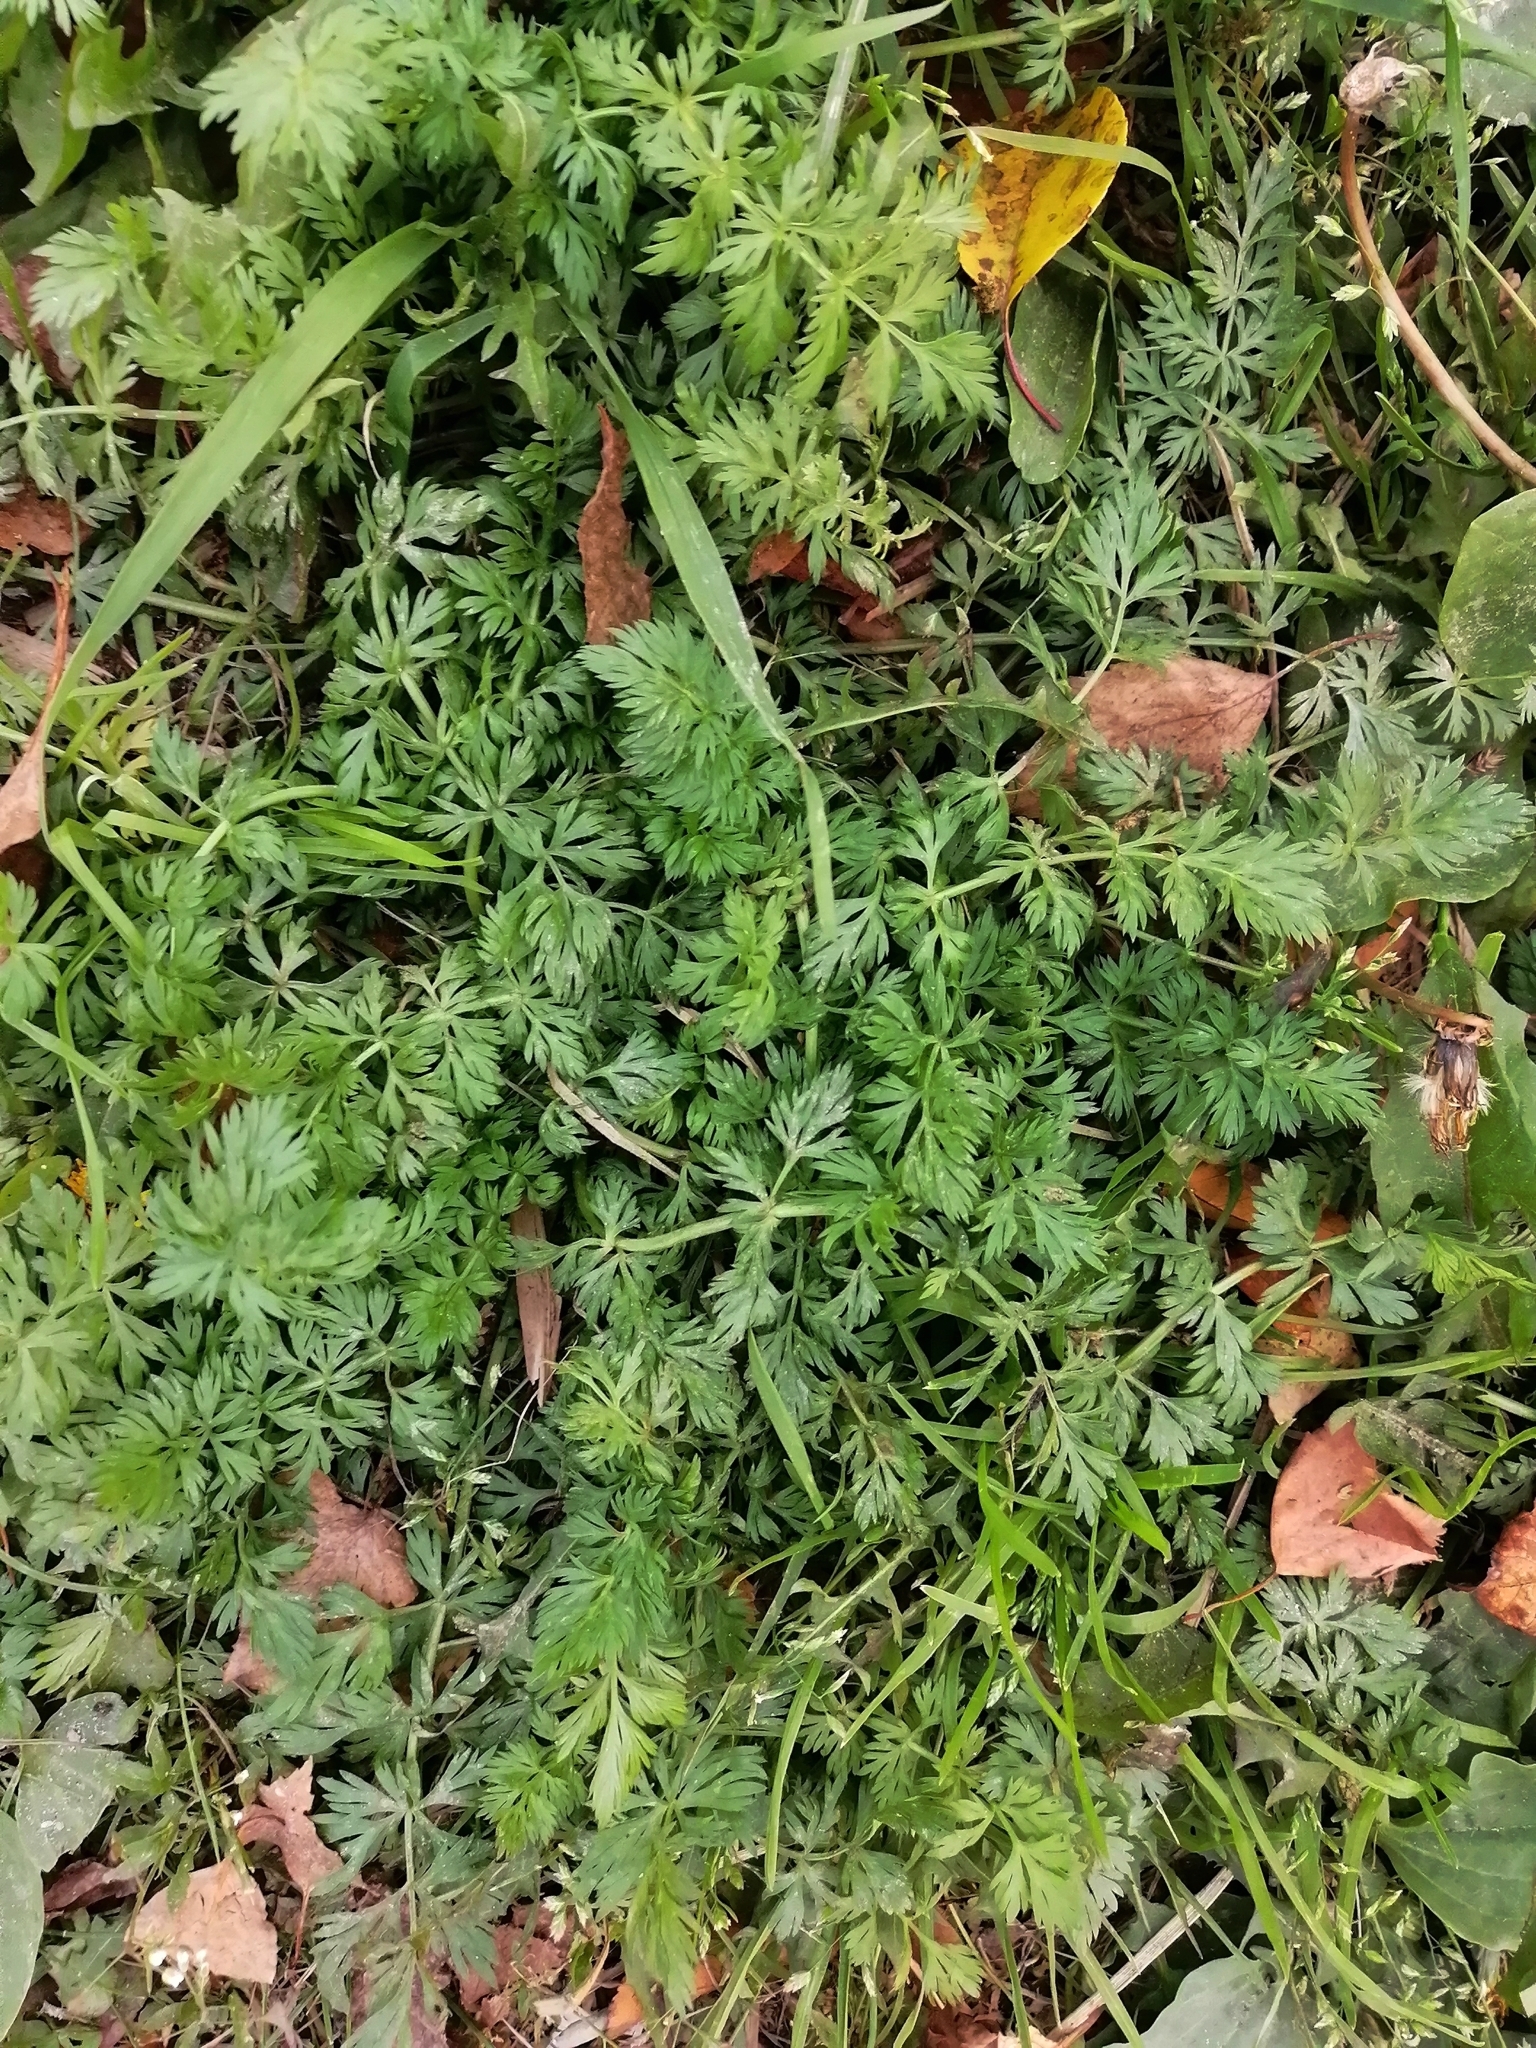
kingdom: Plantae
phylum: Tracheophyta
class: Magnoliopsida
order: Apiales
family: Apiaceae
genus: Carum
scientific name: Carum carvi
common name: Caraway
